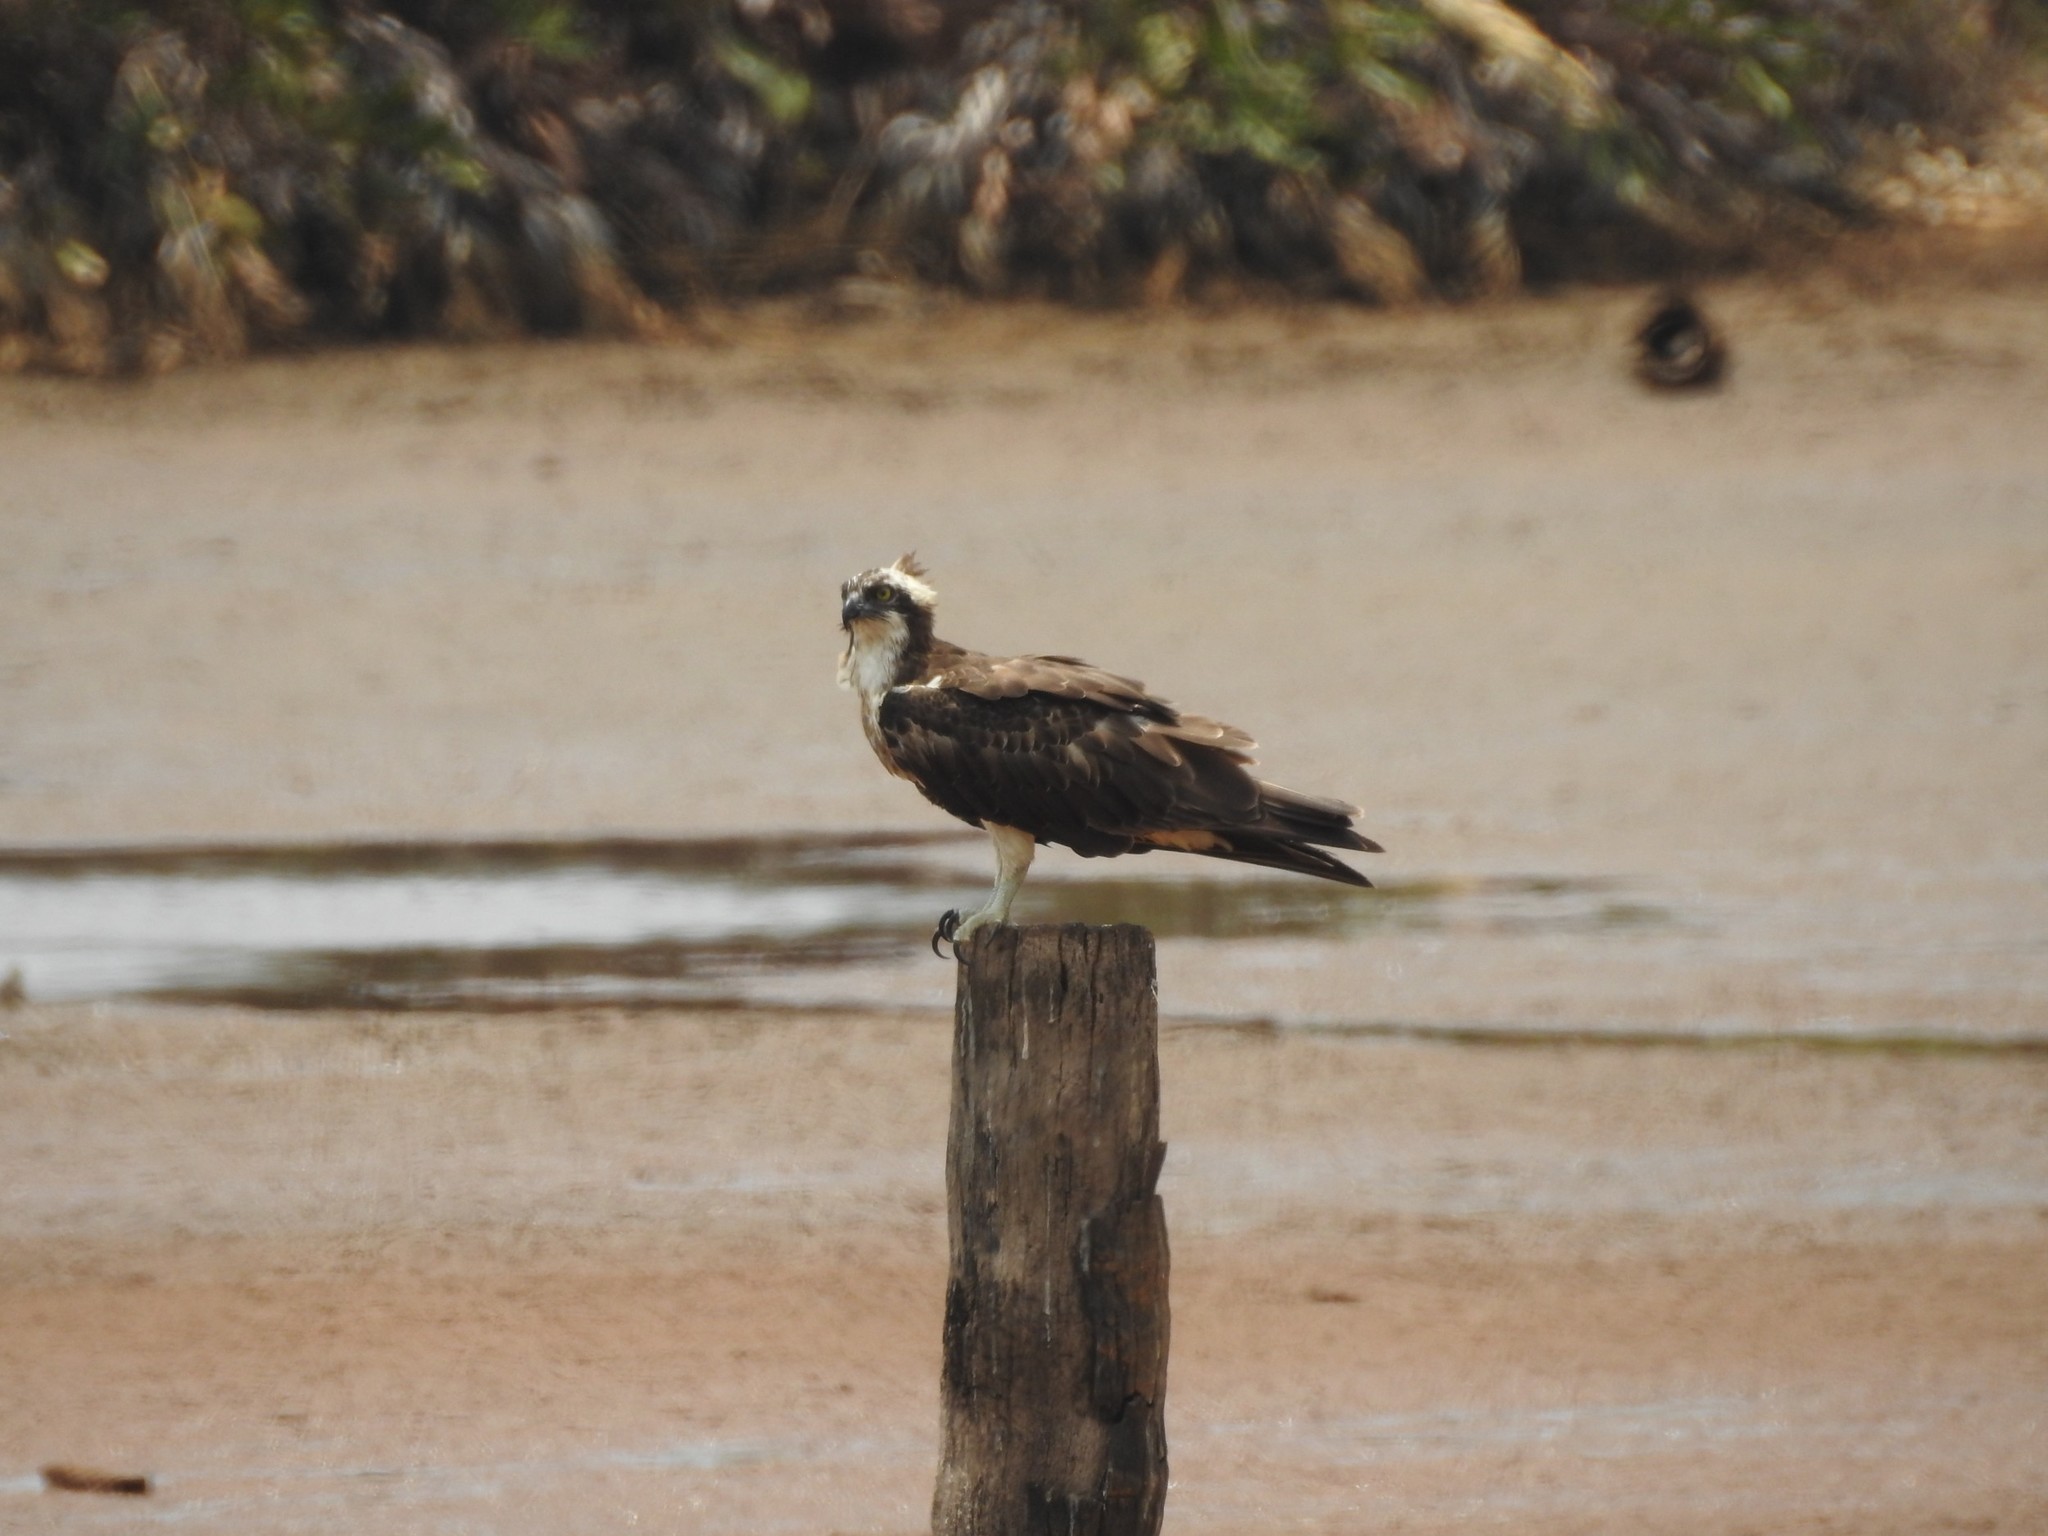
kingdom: Animalia
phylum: Chordata
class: Aves
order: Accipitriformes
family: Pandionidae
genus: Pandion
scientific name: Pandion haliaetus
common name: Osprey
